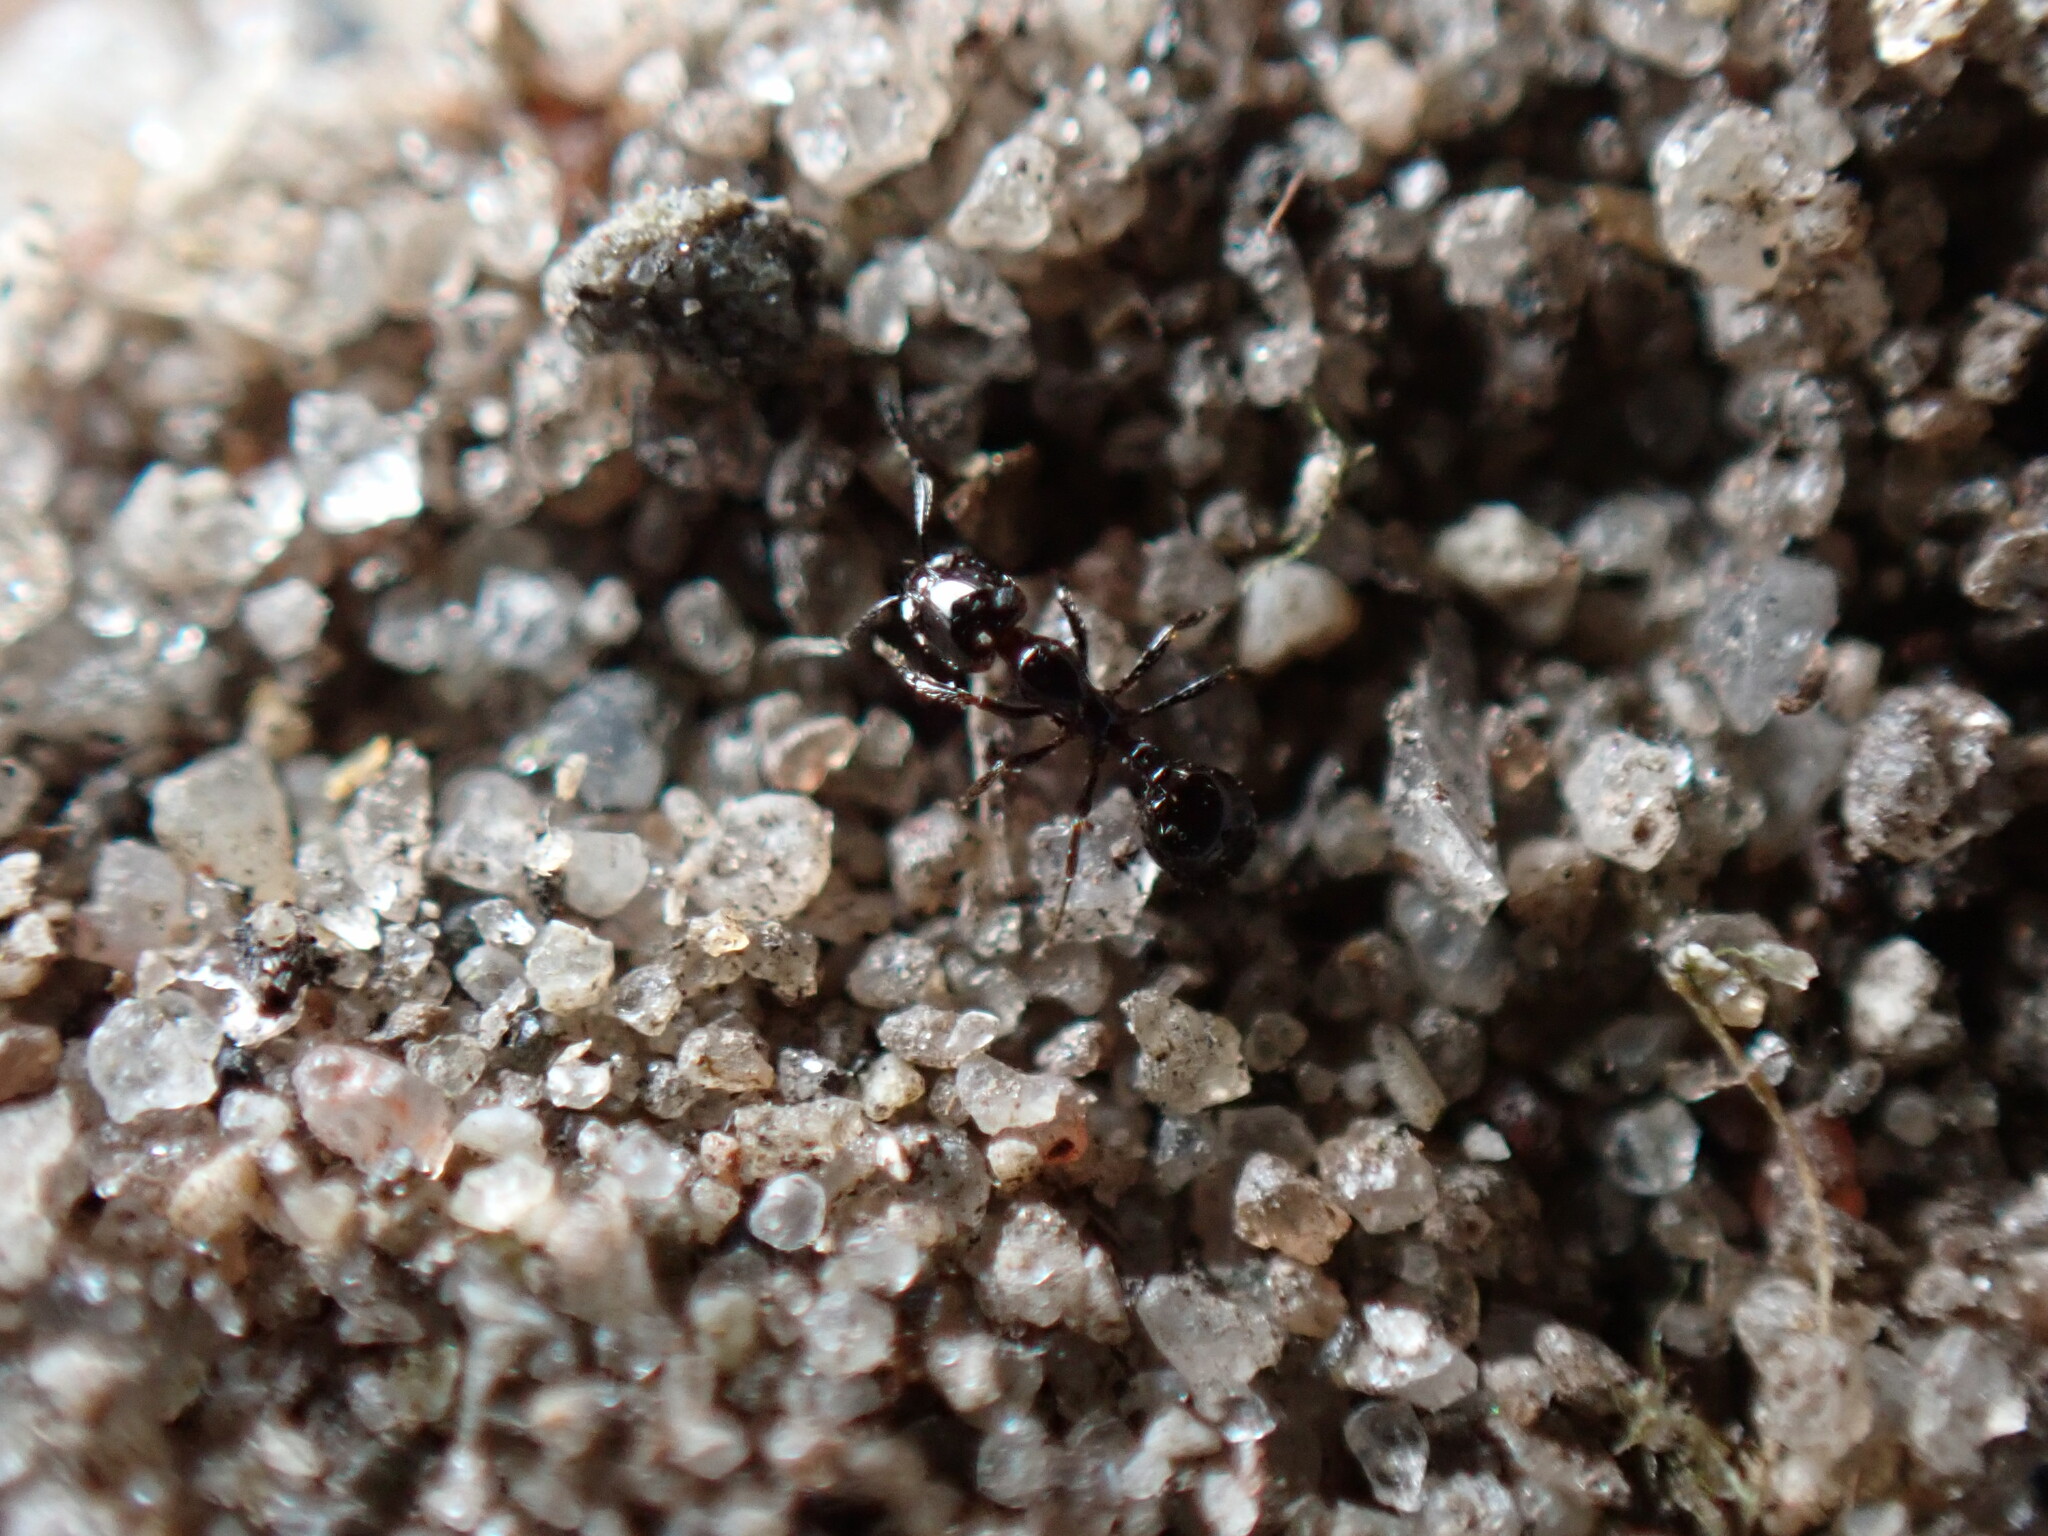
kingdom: Animalia
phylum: Arthropoda
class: Insecta
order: Hymenoptera
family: Formicidae
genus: Monomorium
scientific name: Monomorium minimum
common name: Little black ant
